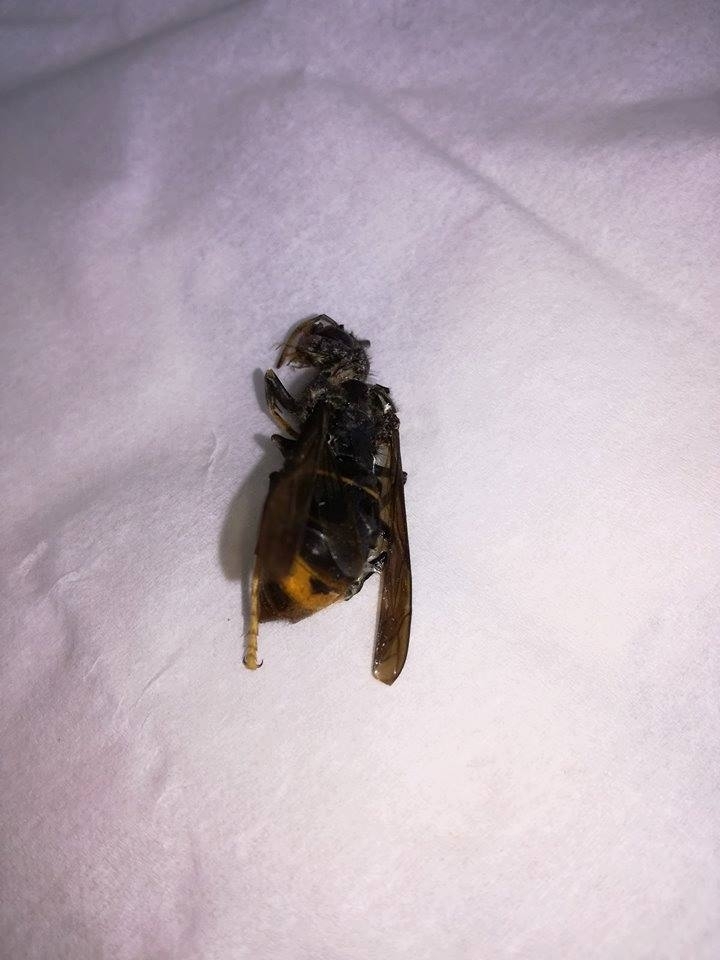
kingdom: Animalia
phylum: Arthropoda
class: Insecta
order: Hymenoptera
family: Vespidae
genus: Vespa
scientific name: Vespa velutina
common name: Asian hornet
